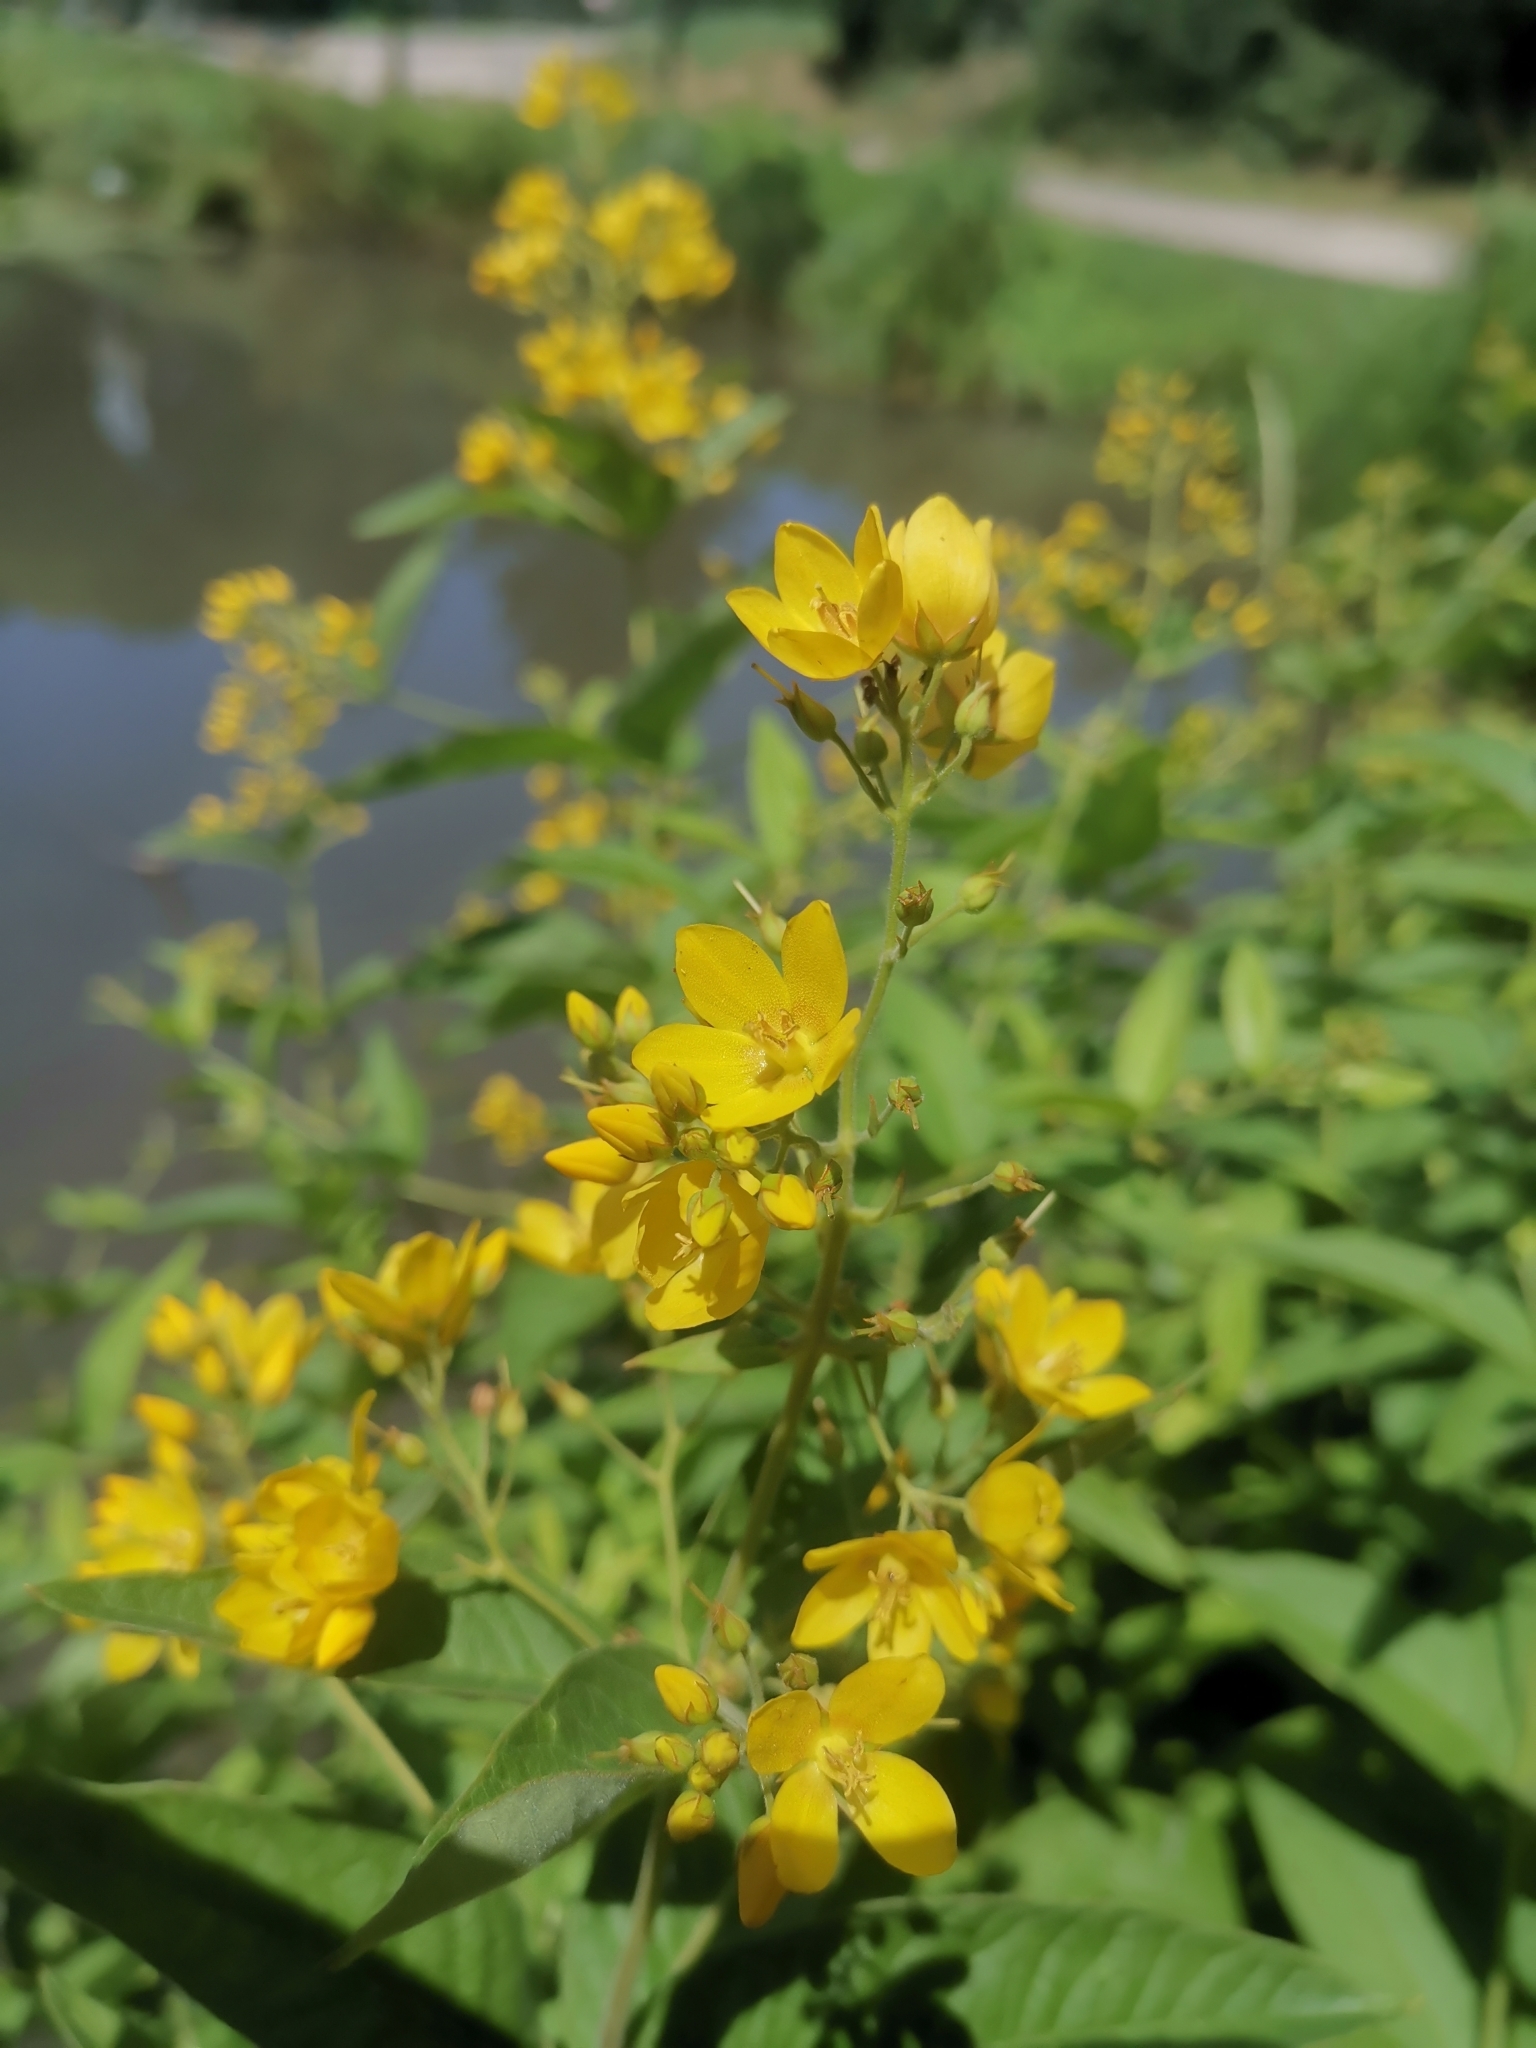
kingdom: Plantae
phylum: Tracheophyta
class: Magnoliopsida
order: Ericales
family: Primulaceae
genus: Lysimachia
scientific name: Lysimachia vulgaris
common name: Yellow loosestrife
